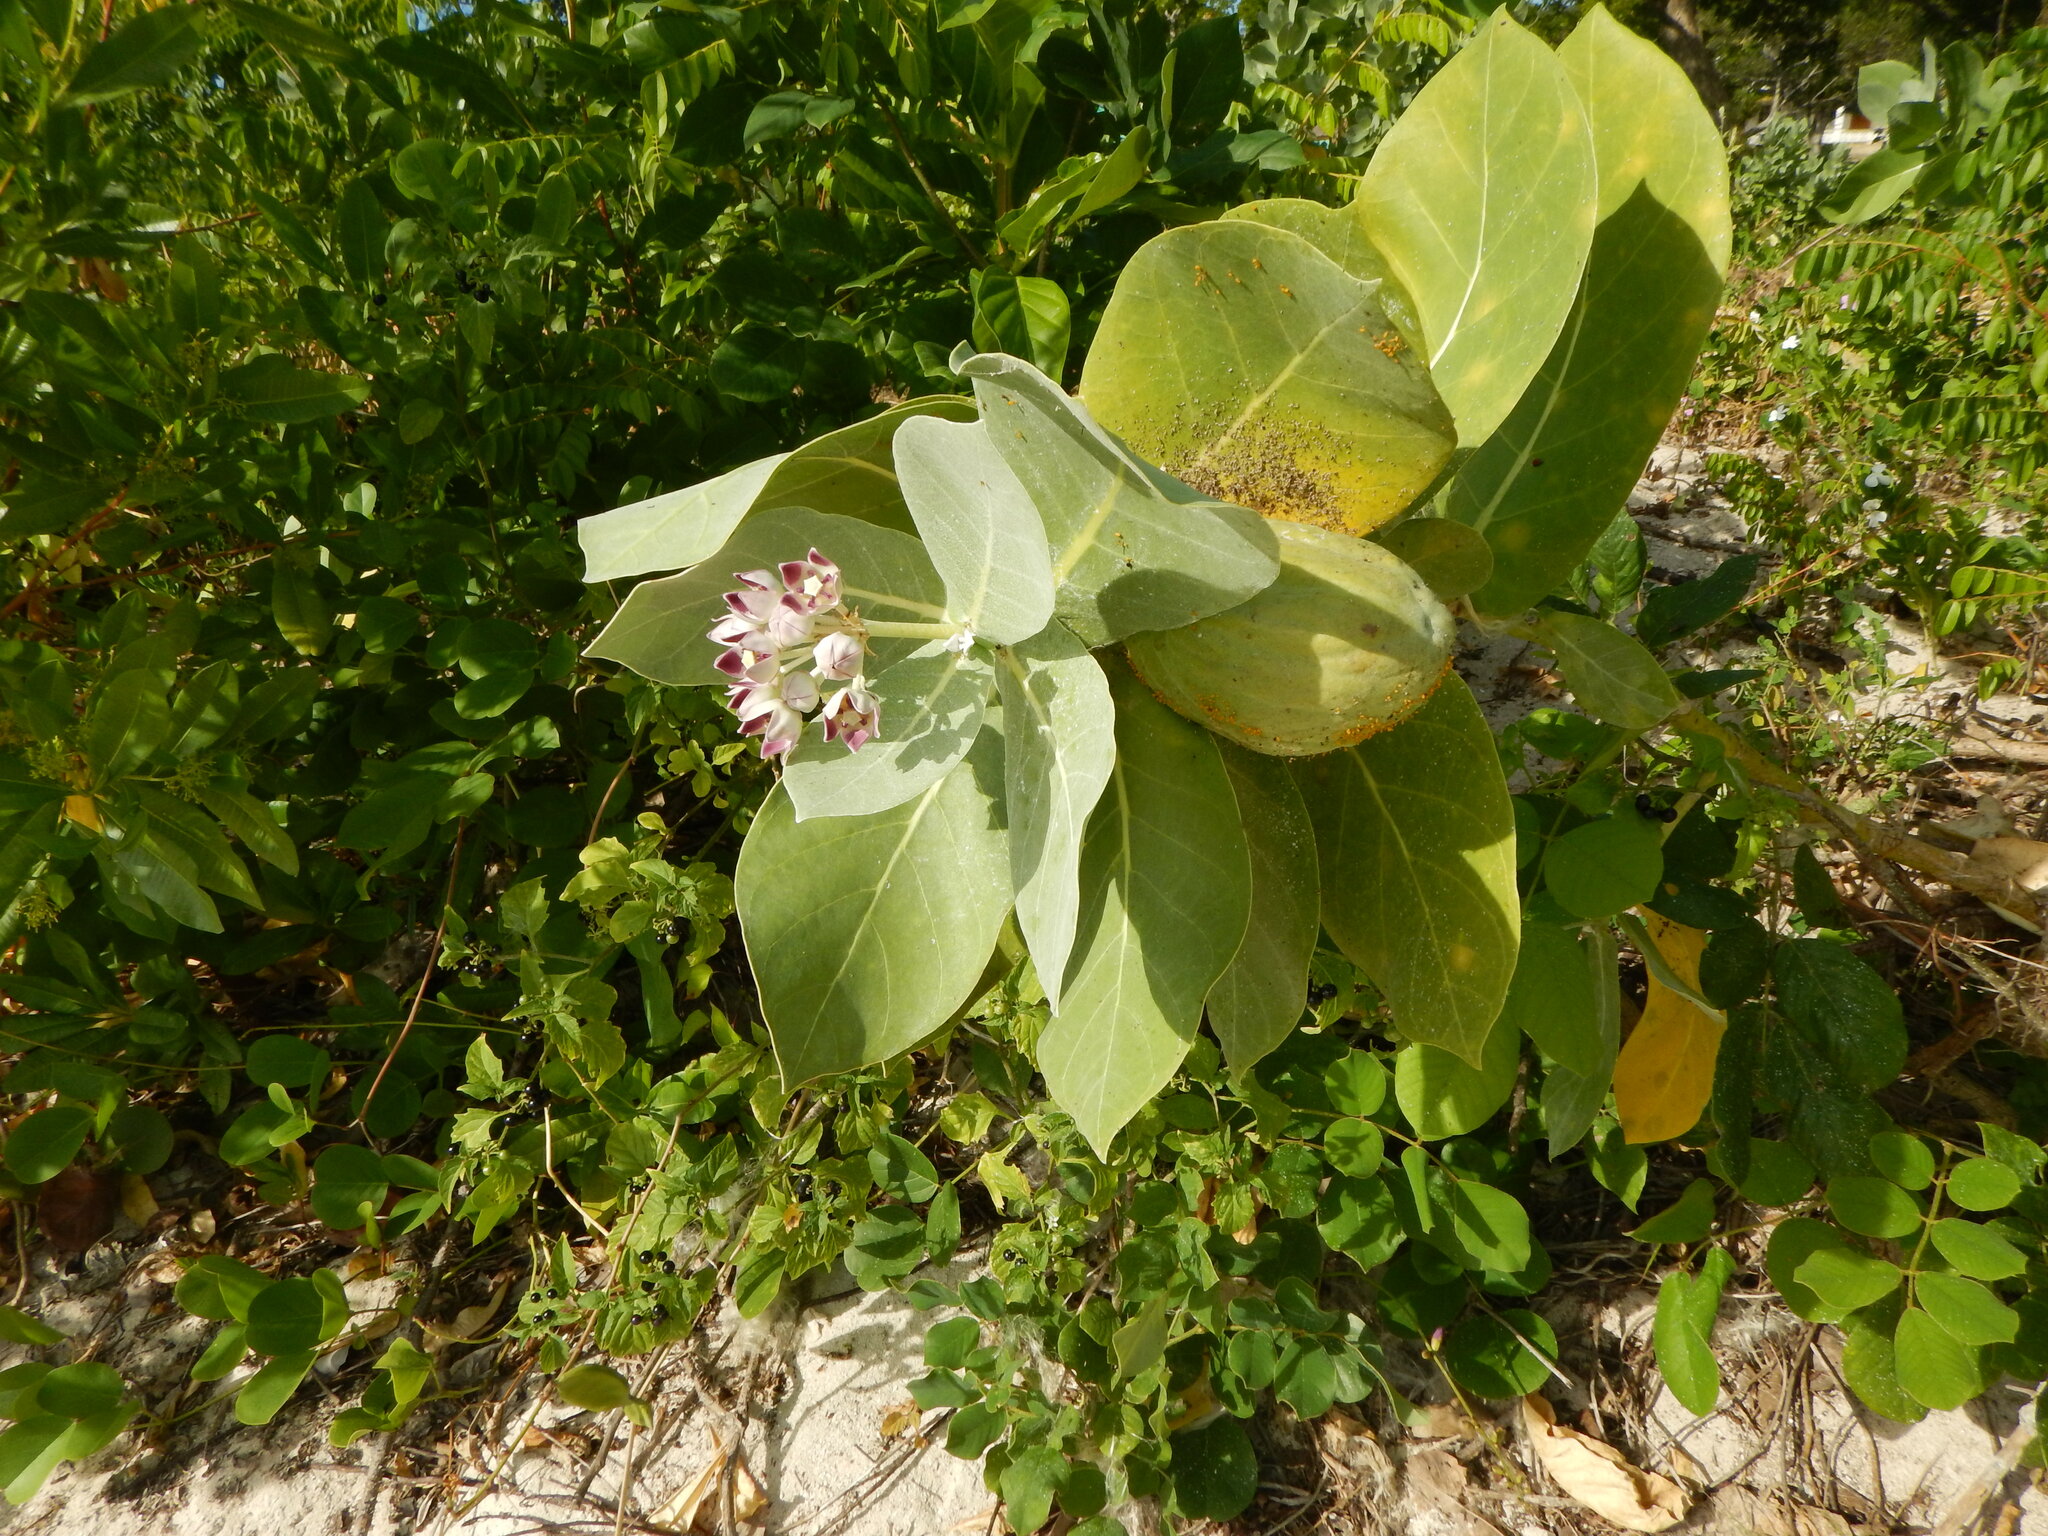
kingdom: Plantae
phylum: Tracheophyta
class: Magnoliopsida
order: Gentianales
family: Apocynaceae
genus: Calotropis
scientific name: Calotropis procera
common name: Roostertree
